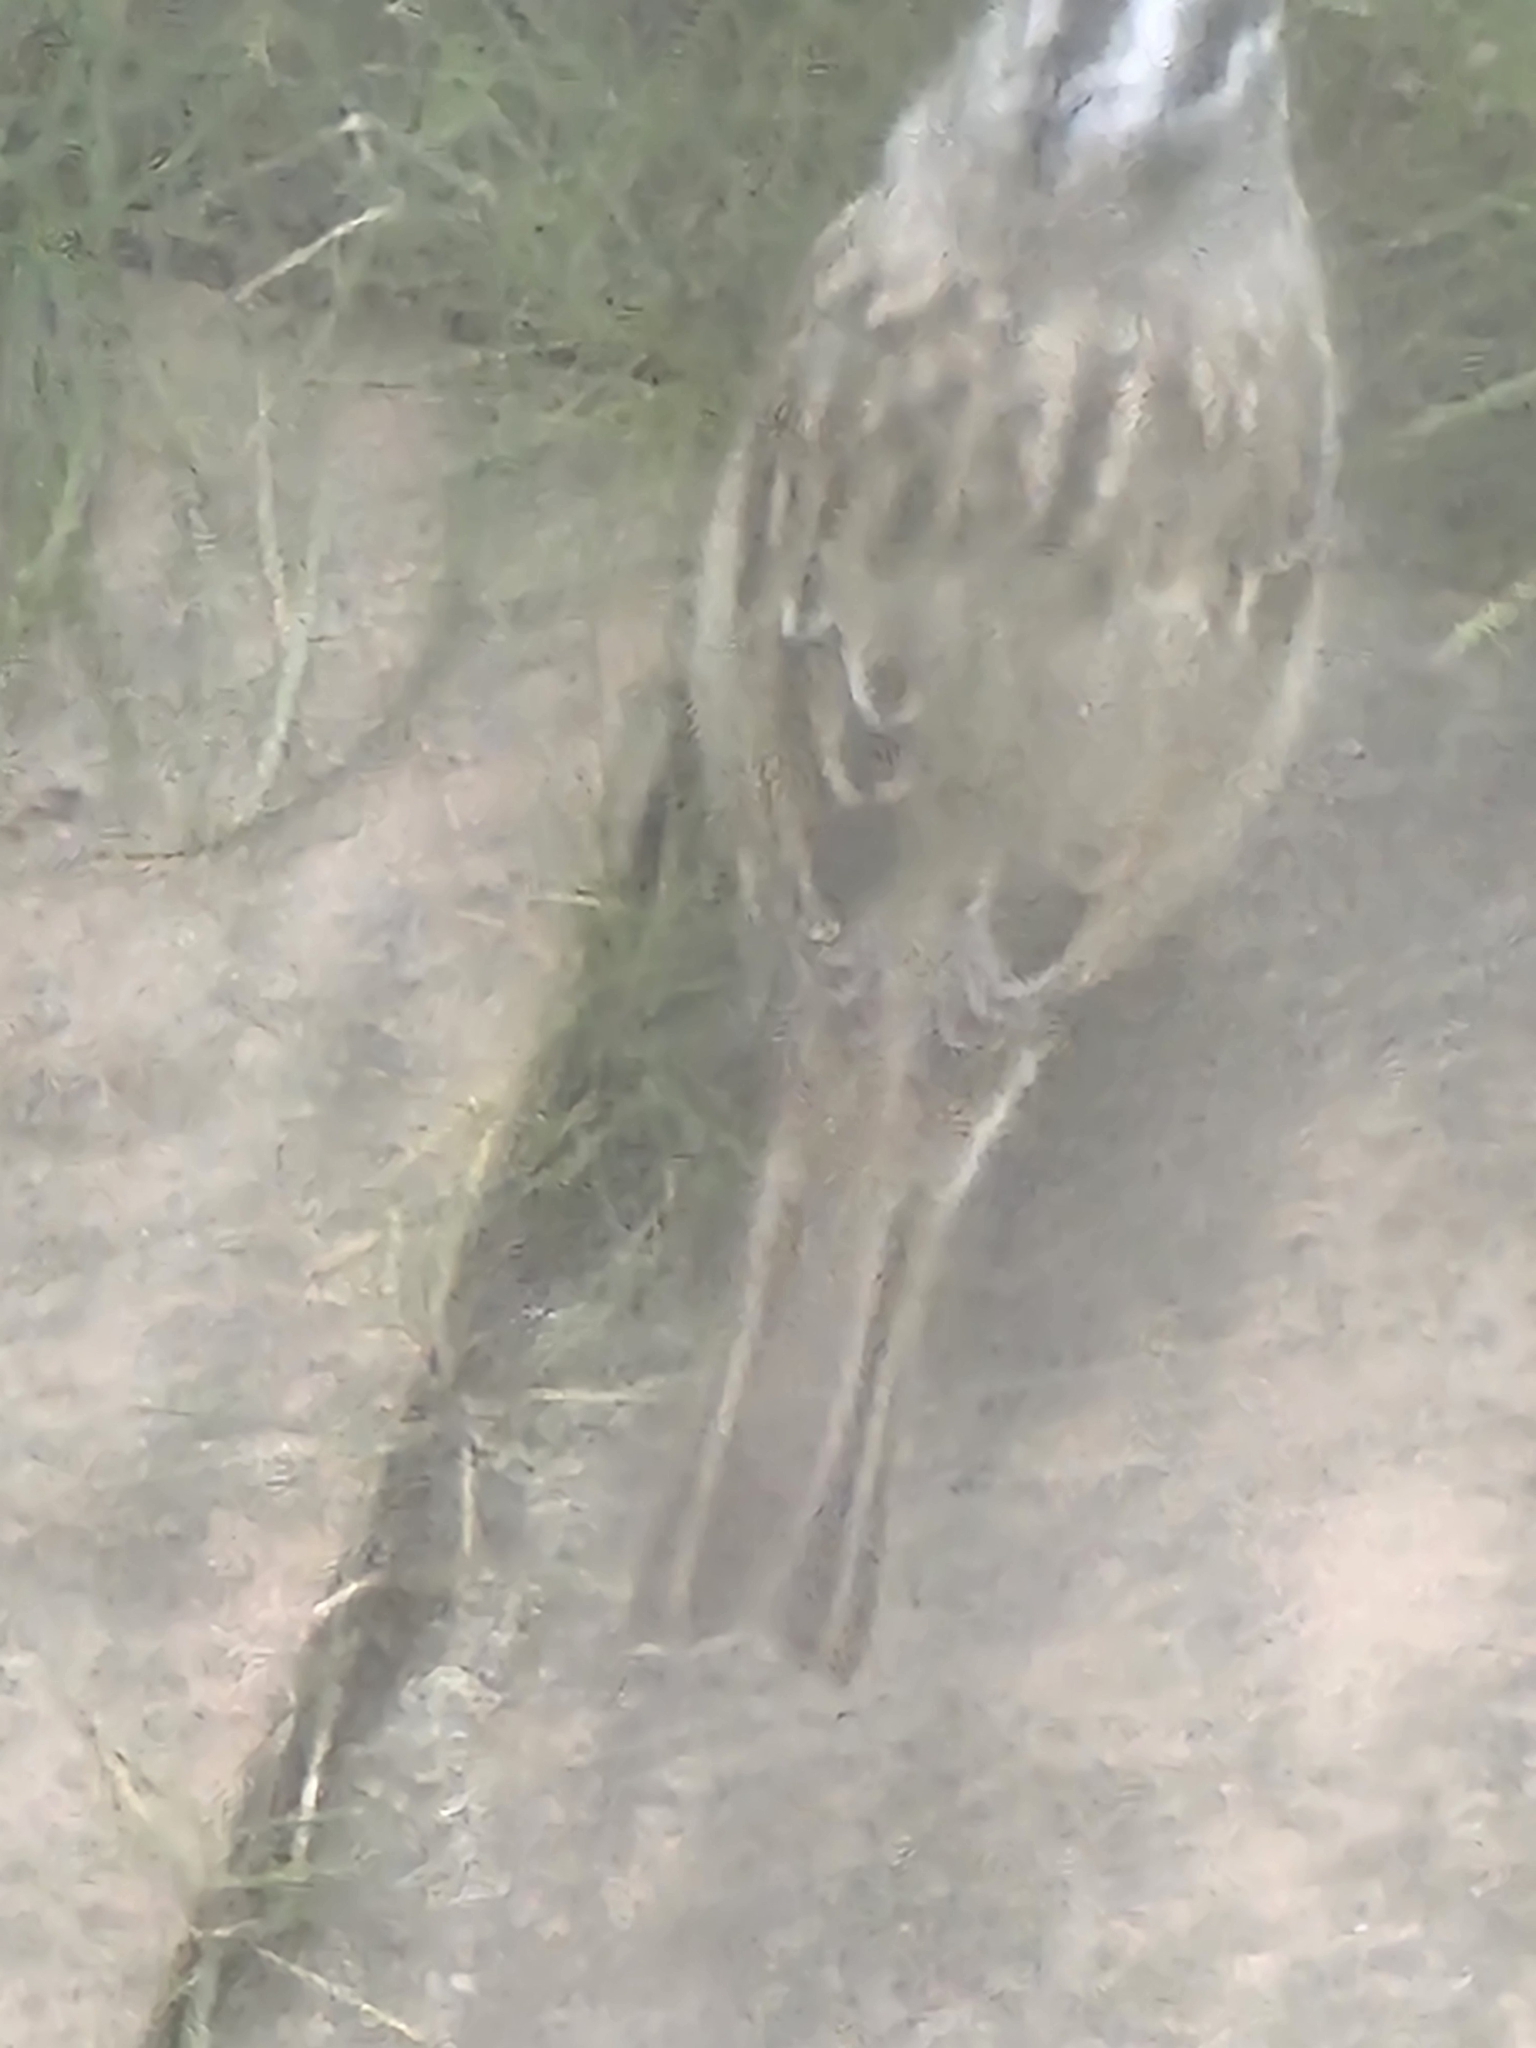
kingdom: Animalia
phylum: Chordata
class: Aves
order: Passeriformes
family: Passerellidae
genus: Zonotrichia
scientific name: Zonotrichia leucophrys
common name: White-crowned sparrow
